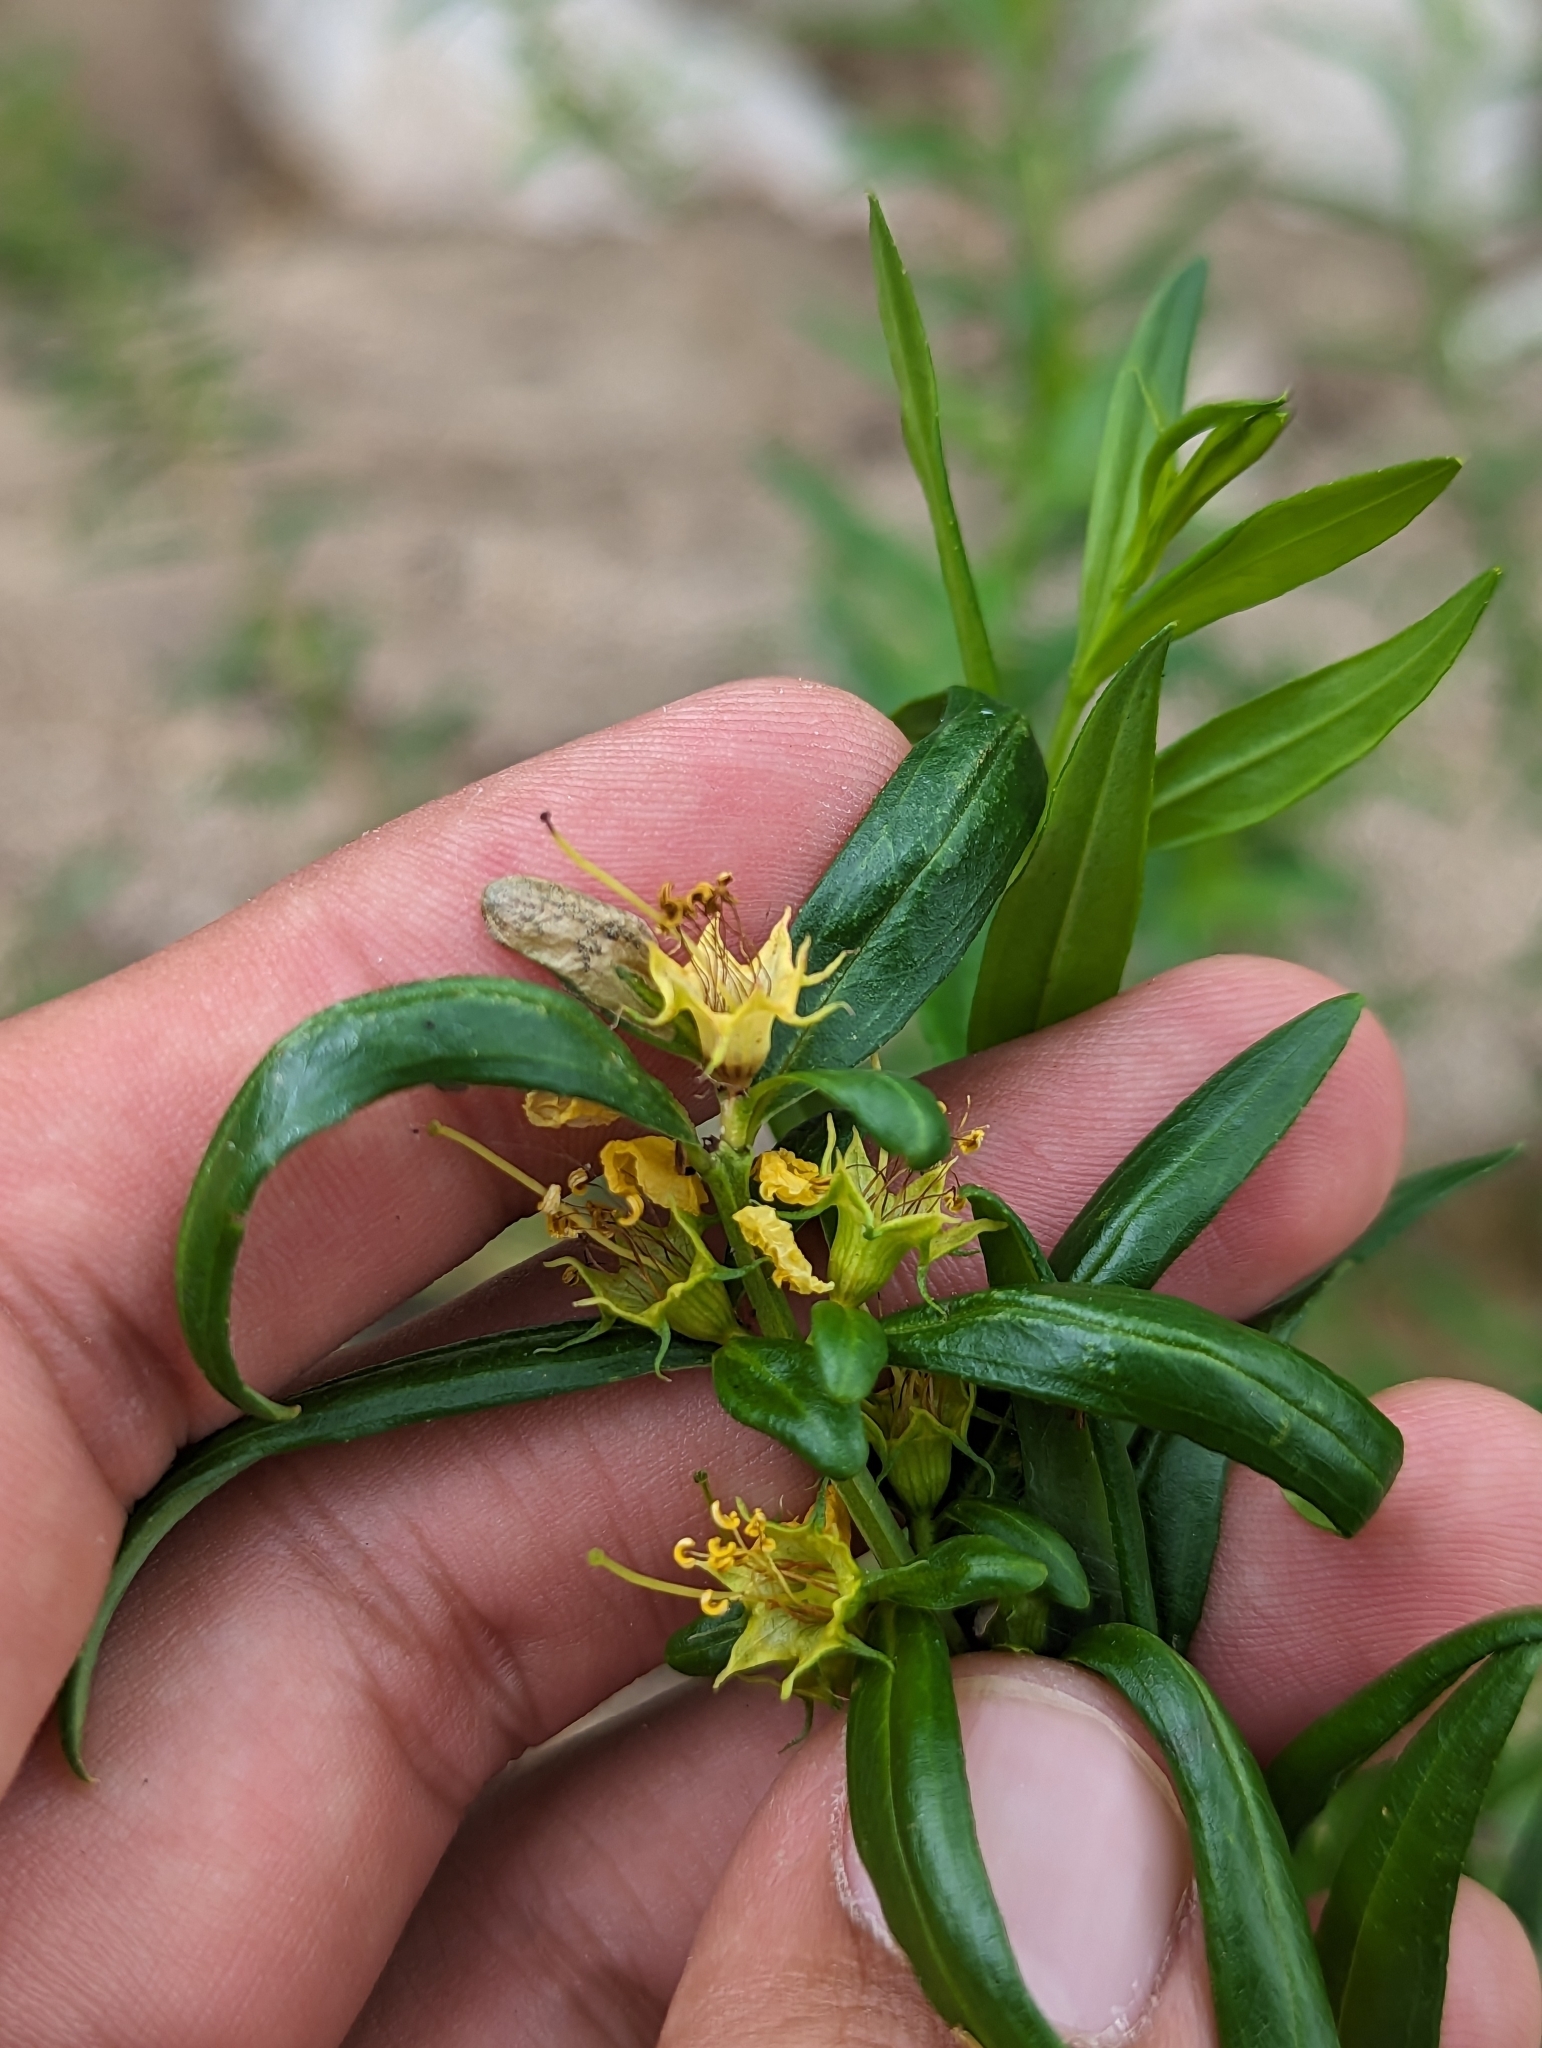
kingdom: Plantae
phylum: Tracheophyta
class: Magnoliopsida
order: Myrtales
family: Lythraceae
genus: Heimia
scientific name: Heimia salicifolia
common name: Willow-leaf heimia
